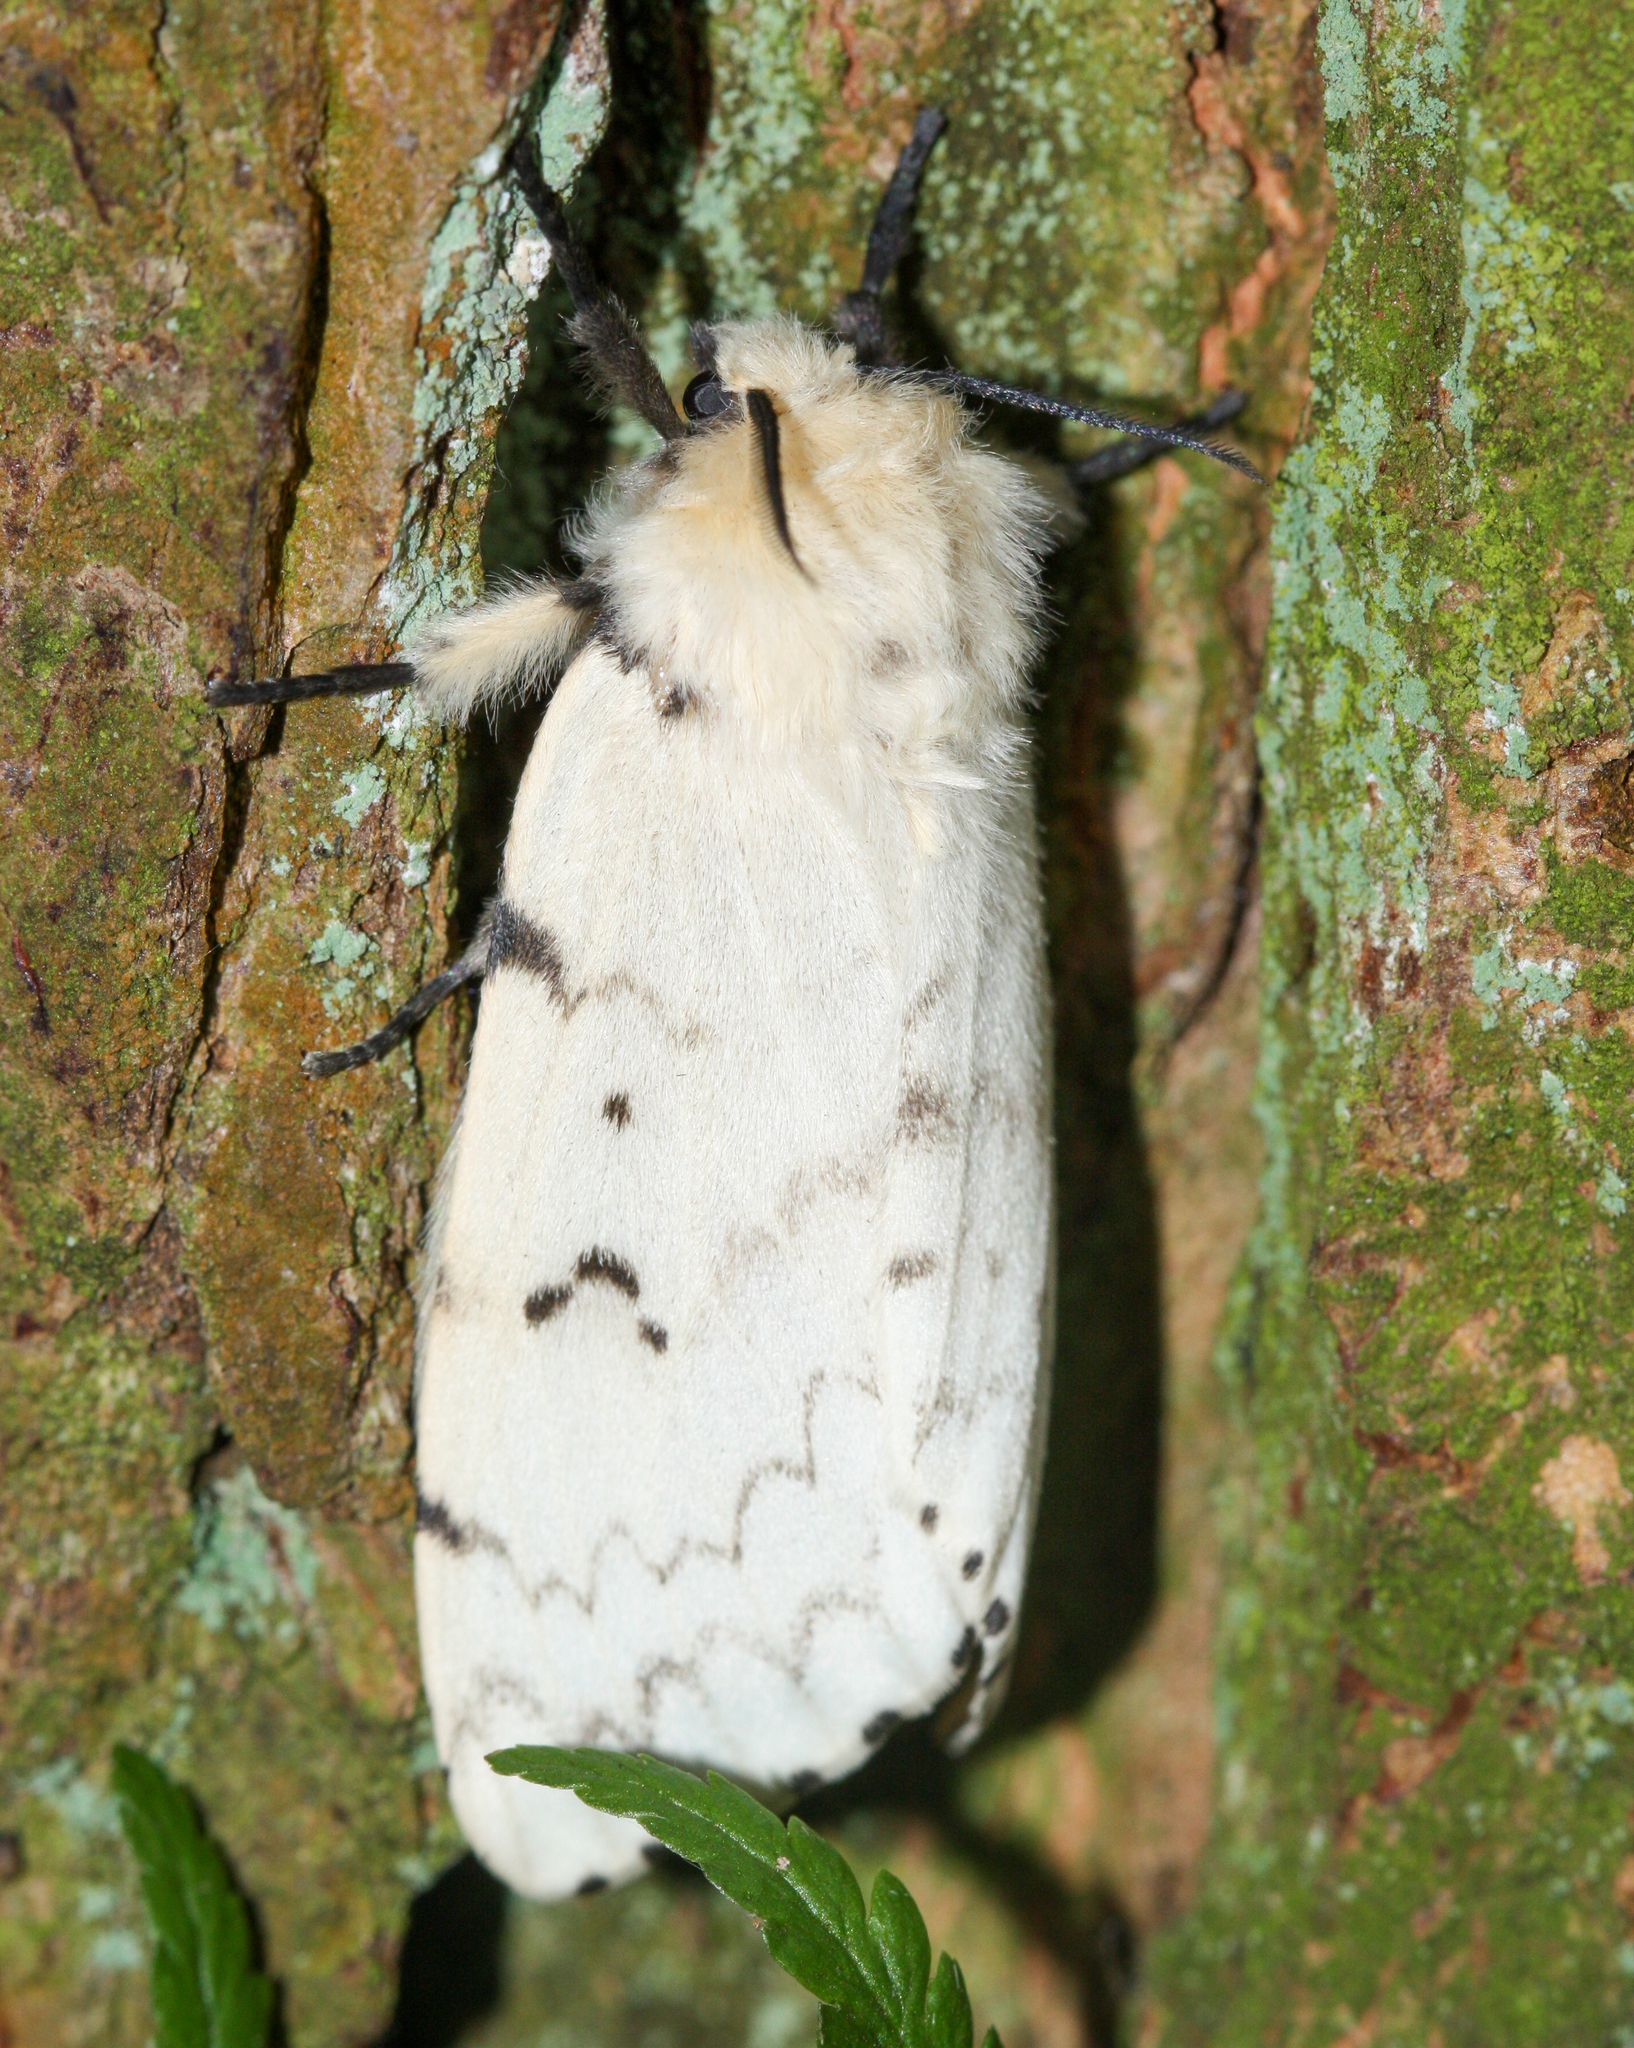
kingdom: Animalia
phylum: Arthropoda
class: Insecta
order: Lepidoptera
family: Erebidae
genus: Lymantria
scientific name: Lymantria dispar
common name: Gypsy moth
